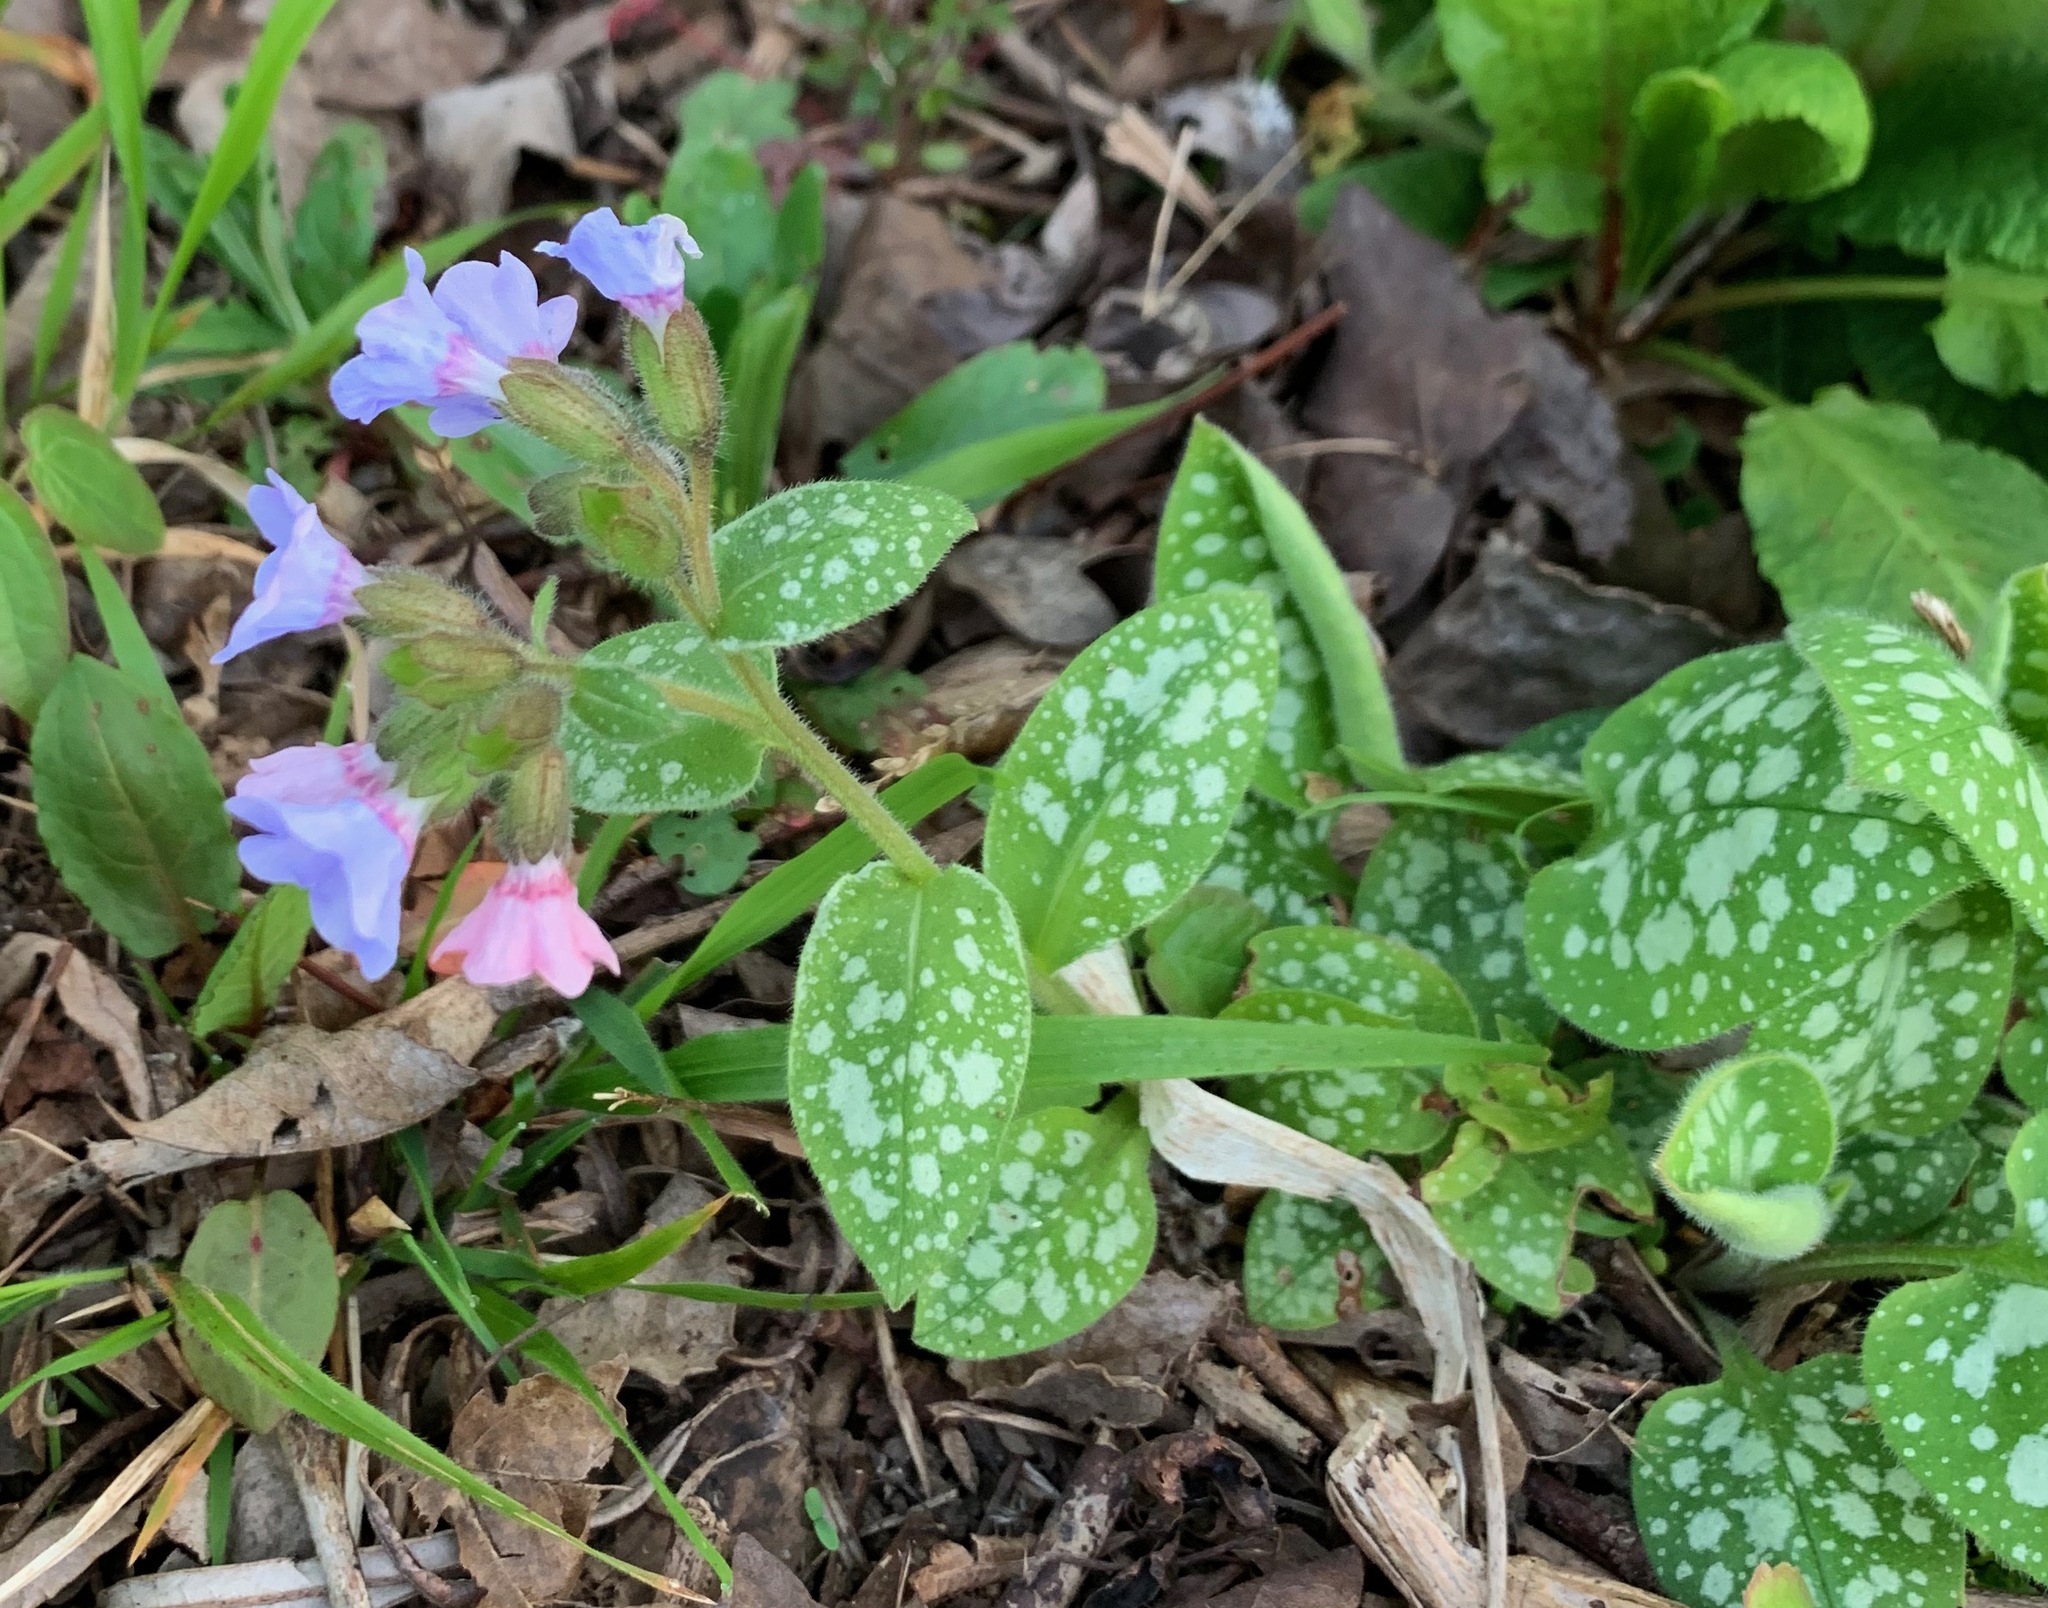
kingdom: Plantae
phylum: Tracheophyta
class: Magnoliopsida
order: Boraginales
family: Boraginaceae
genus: Pulmonaria
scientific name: Pulmonaria officinalis
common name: Lungwort
